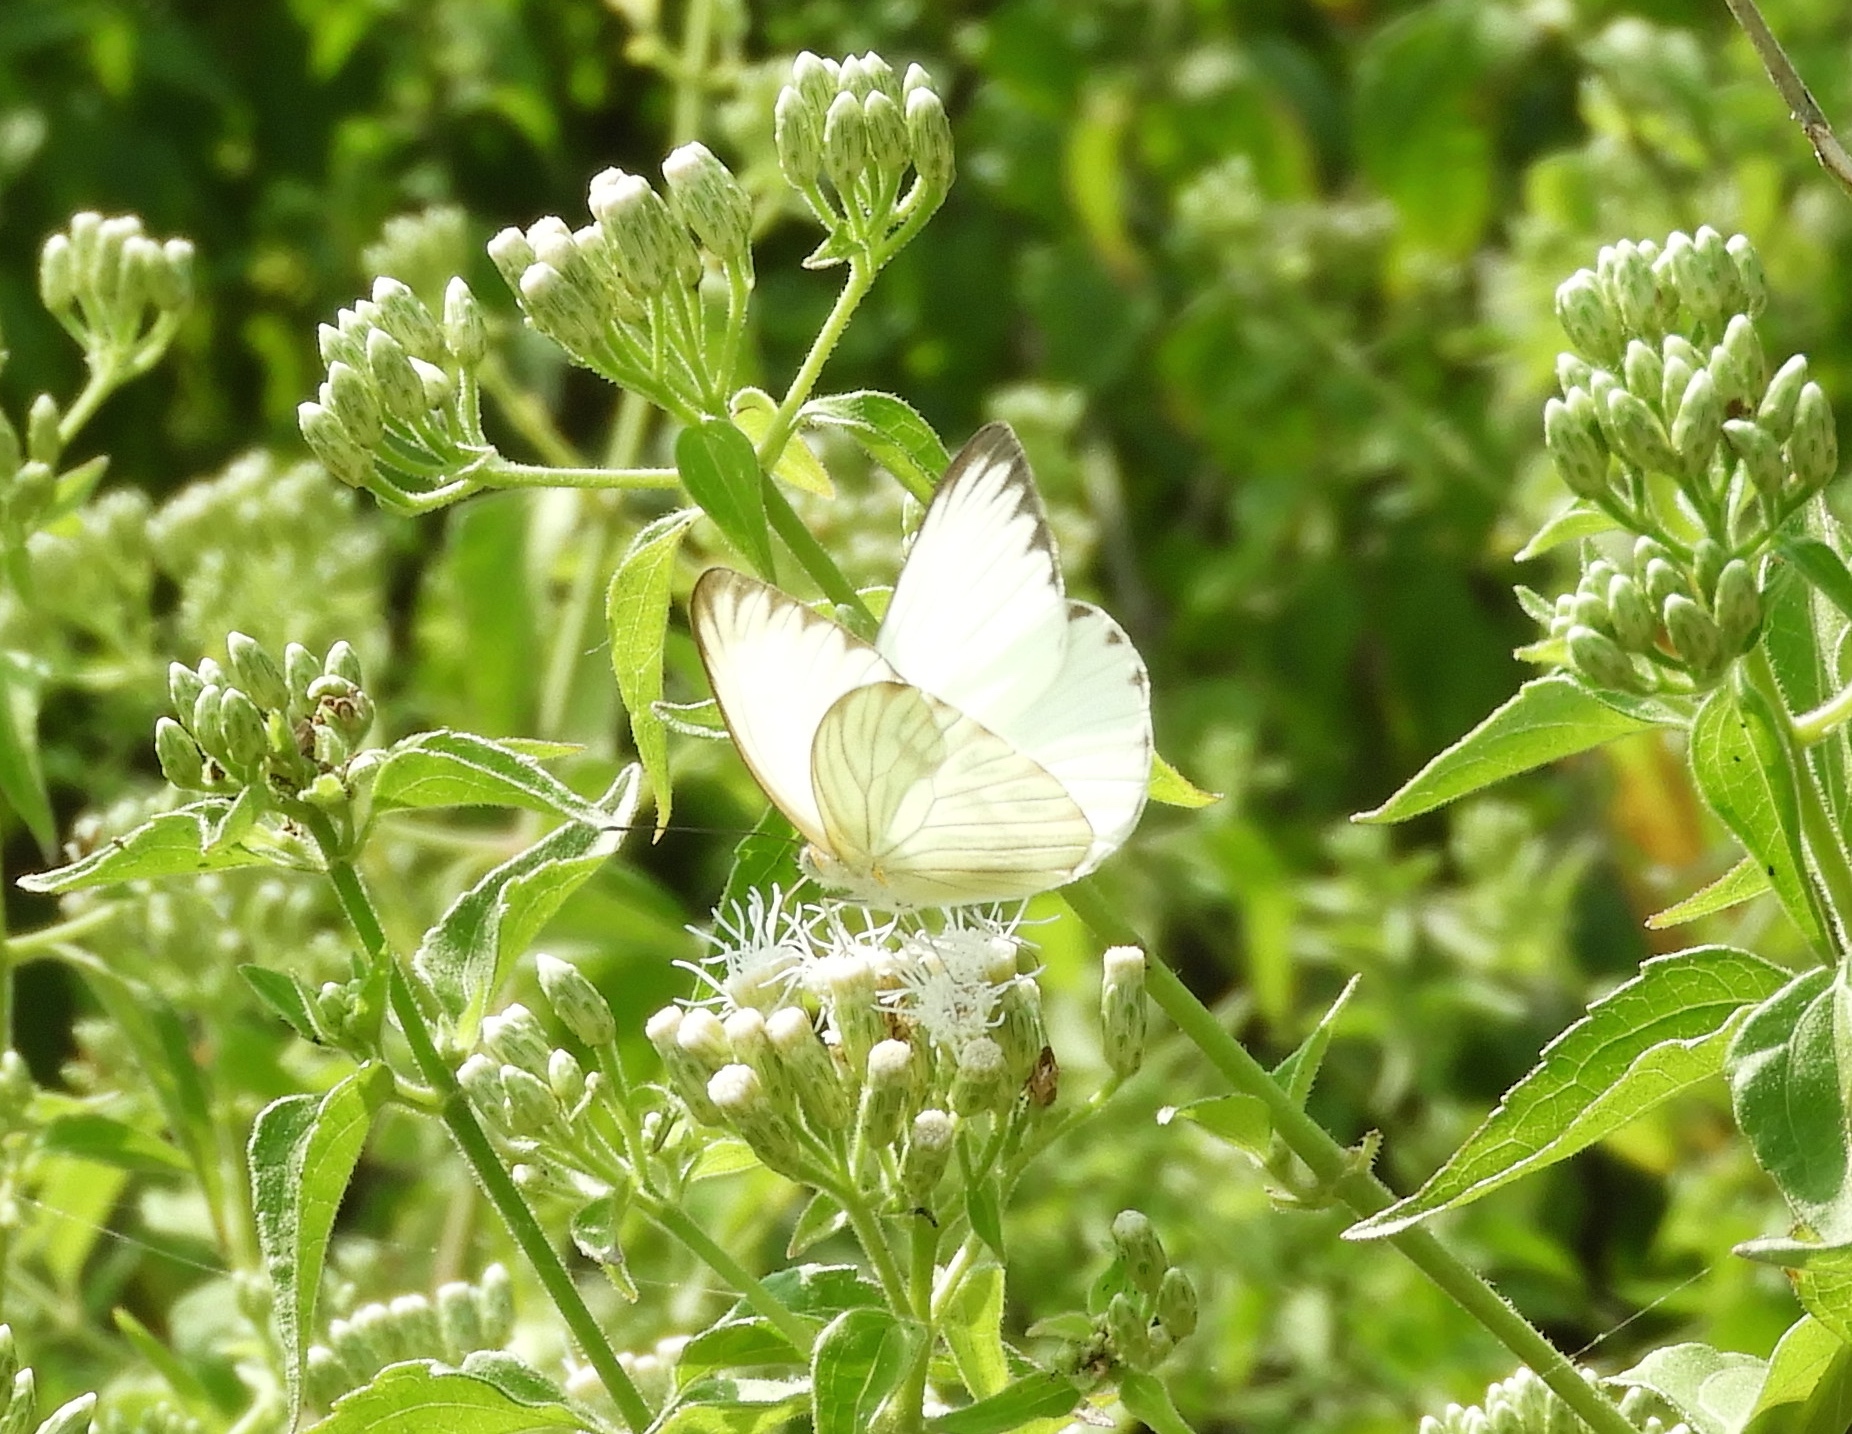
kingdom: Animalia
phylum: Arthropoda
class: Insecta
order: Lepidoptera
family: Pieridae
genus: Ascia
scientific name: Ascia monuste
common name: Great southern white
